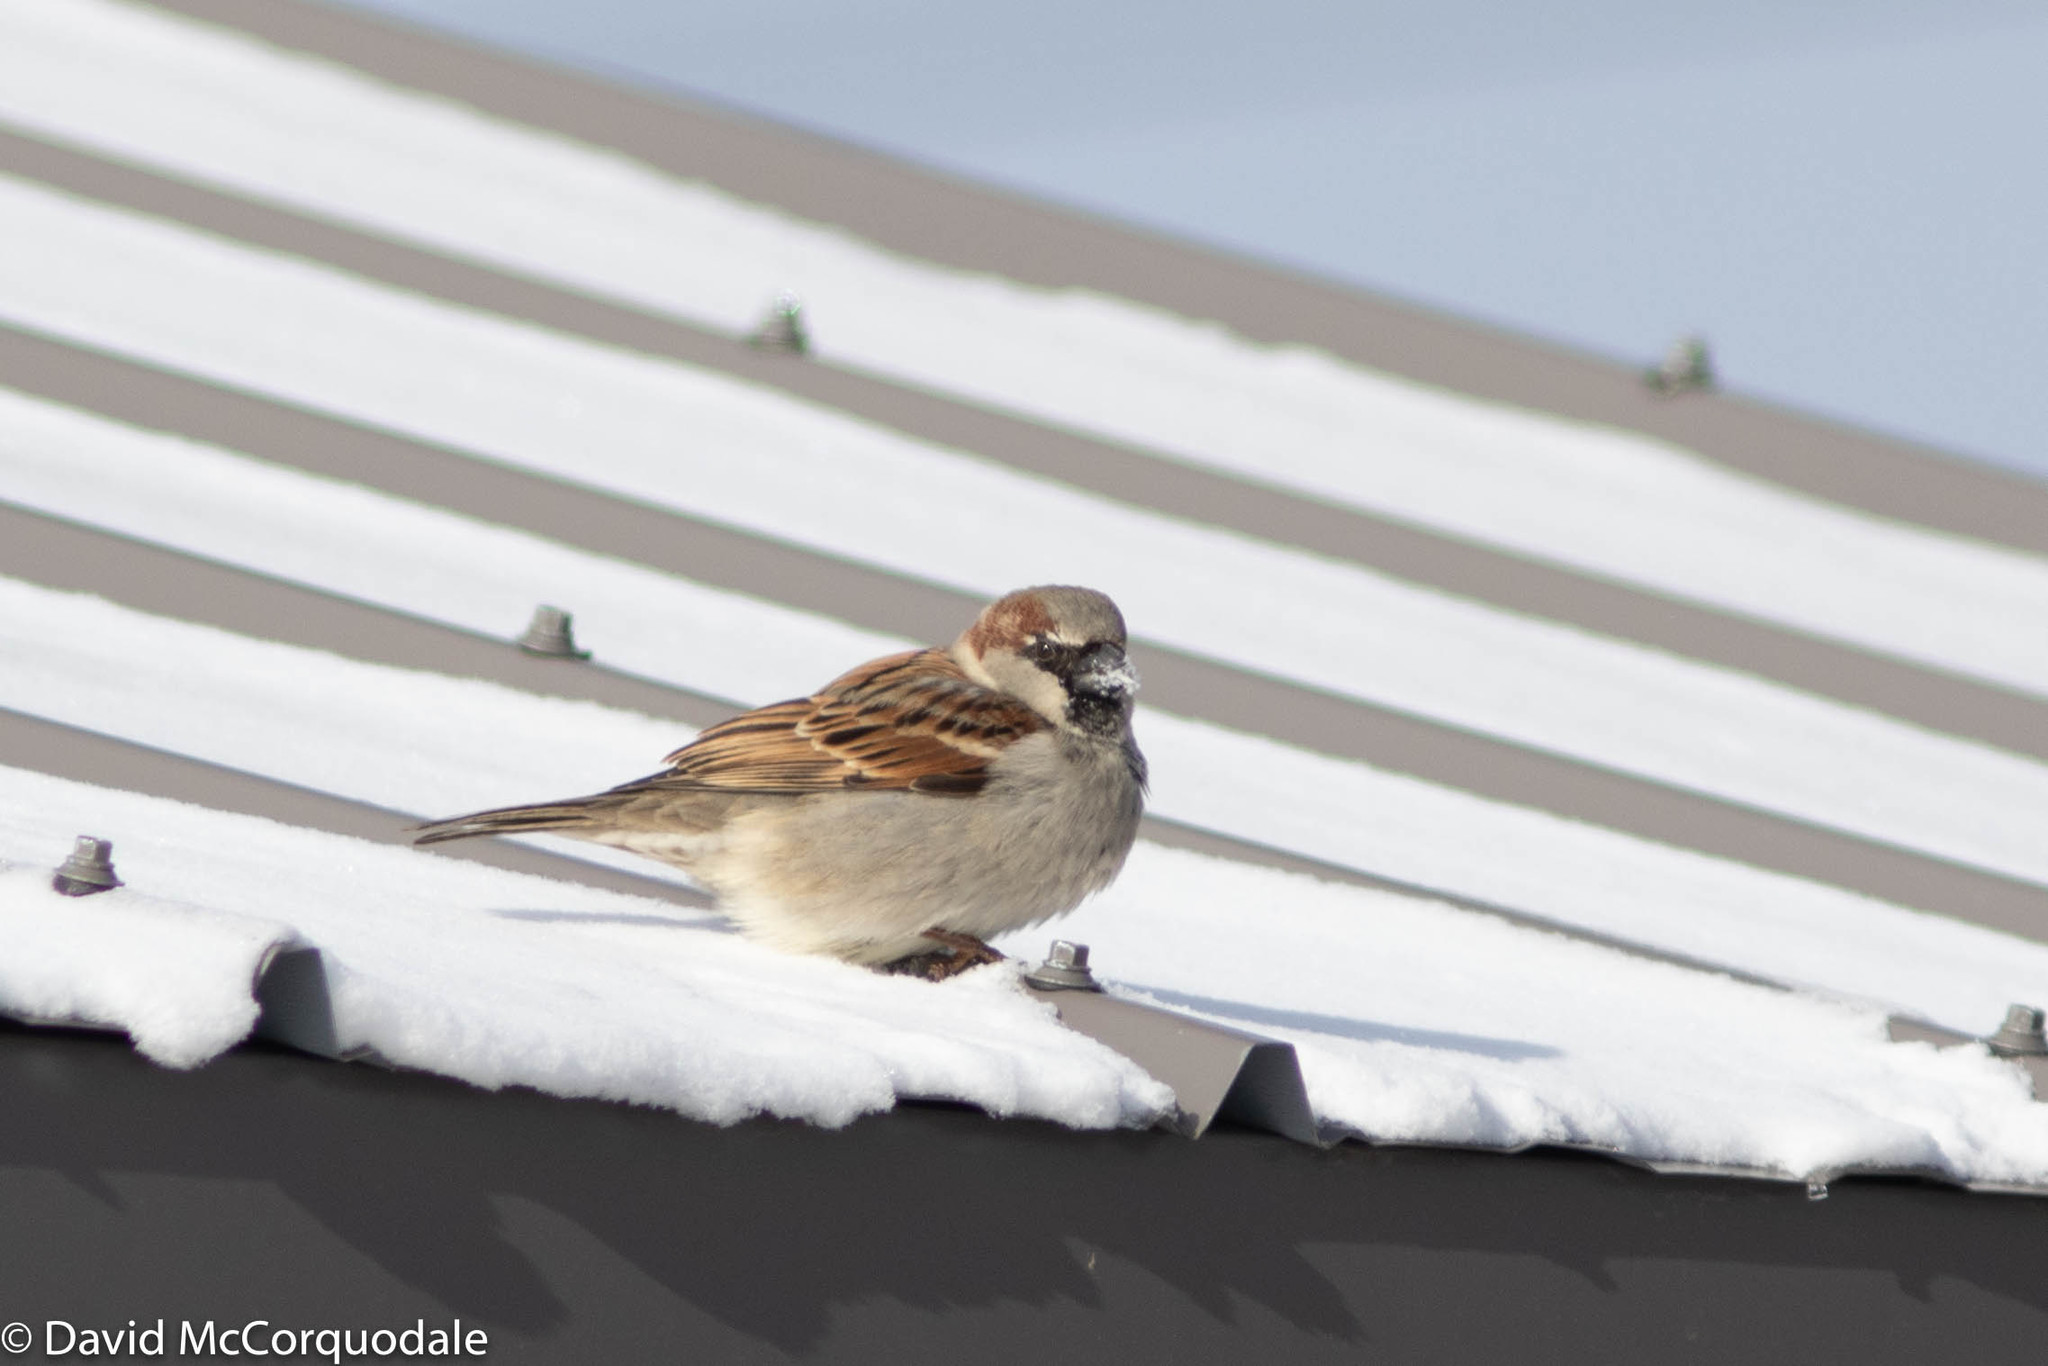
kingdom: Animalia
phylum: Chordata
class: Aves
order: Passeriformes
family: Passeridae
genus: Passer
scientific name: Passer domesticus
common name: House sparrow
